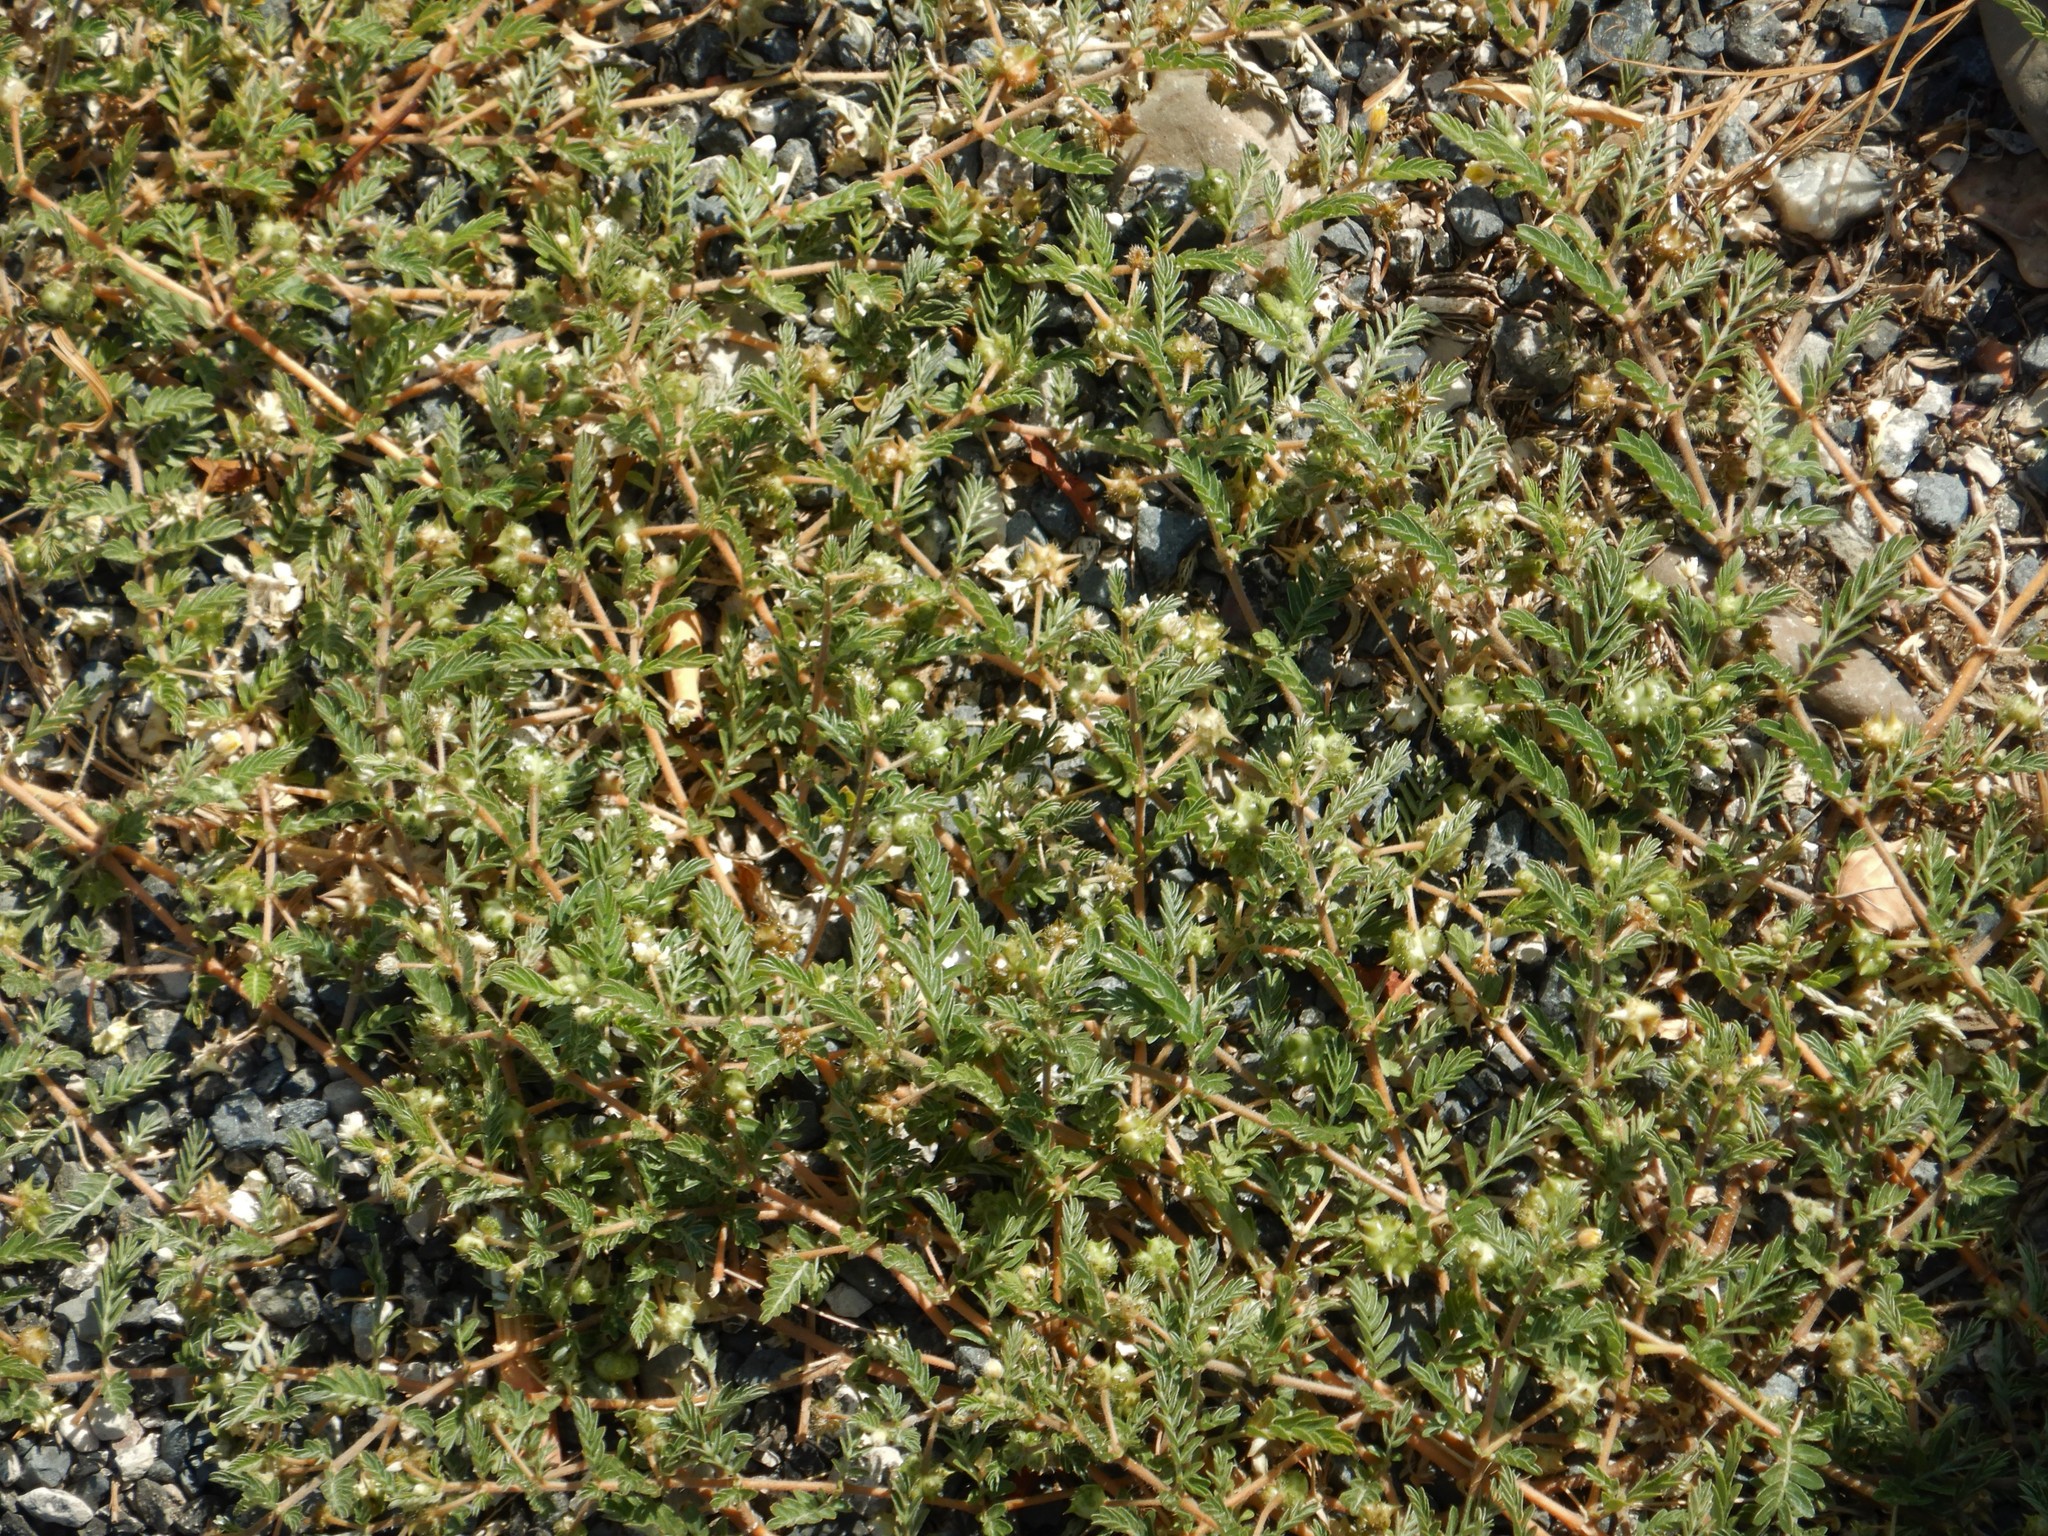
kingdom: Plantae
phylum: Tracheophyta
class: Magnoliopsida
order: Zygophyllales
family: Zygophyllaceae
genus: Tribulus
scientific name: Tribulus terrestris
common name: Puncturevine
